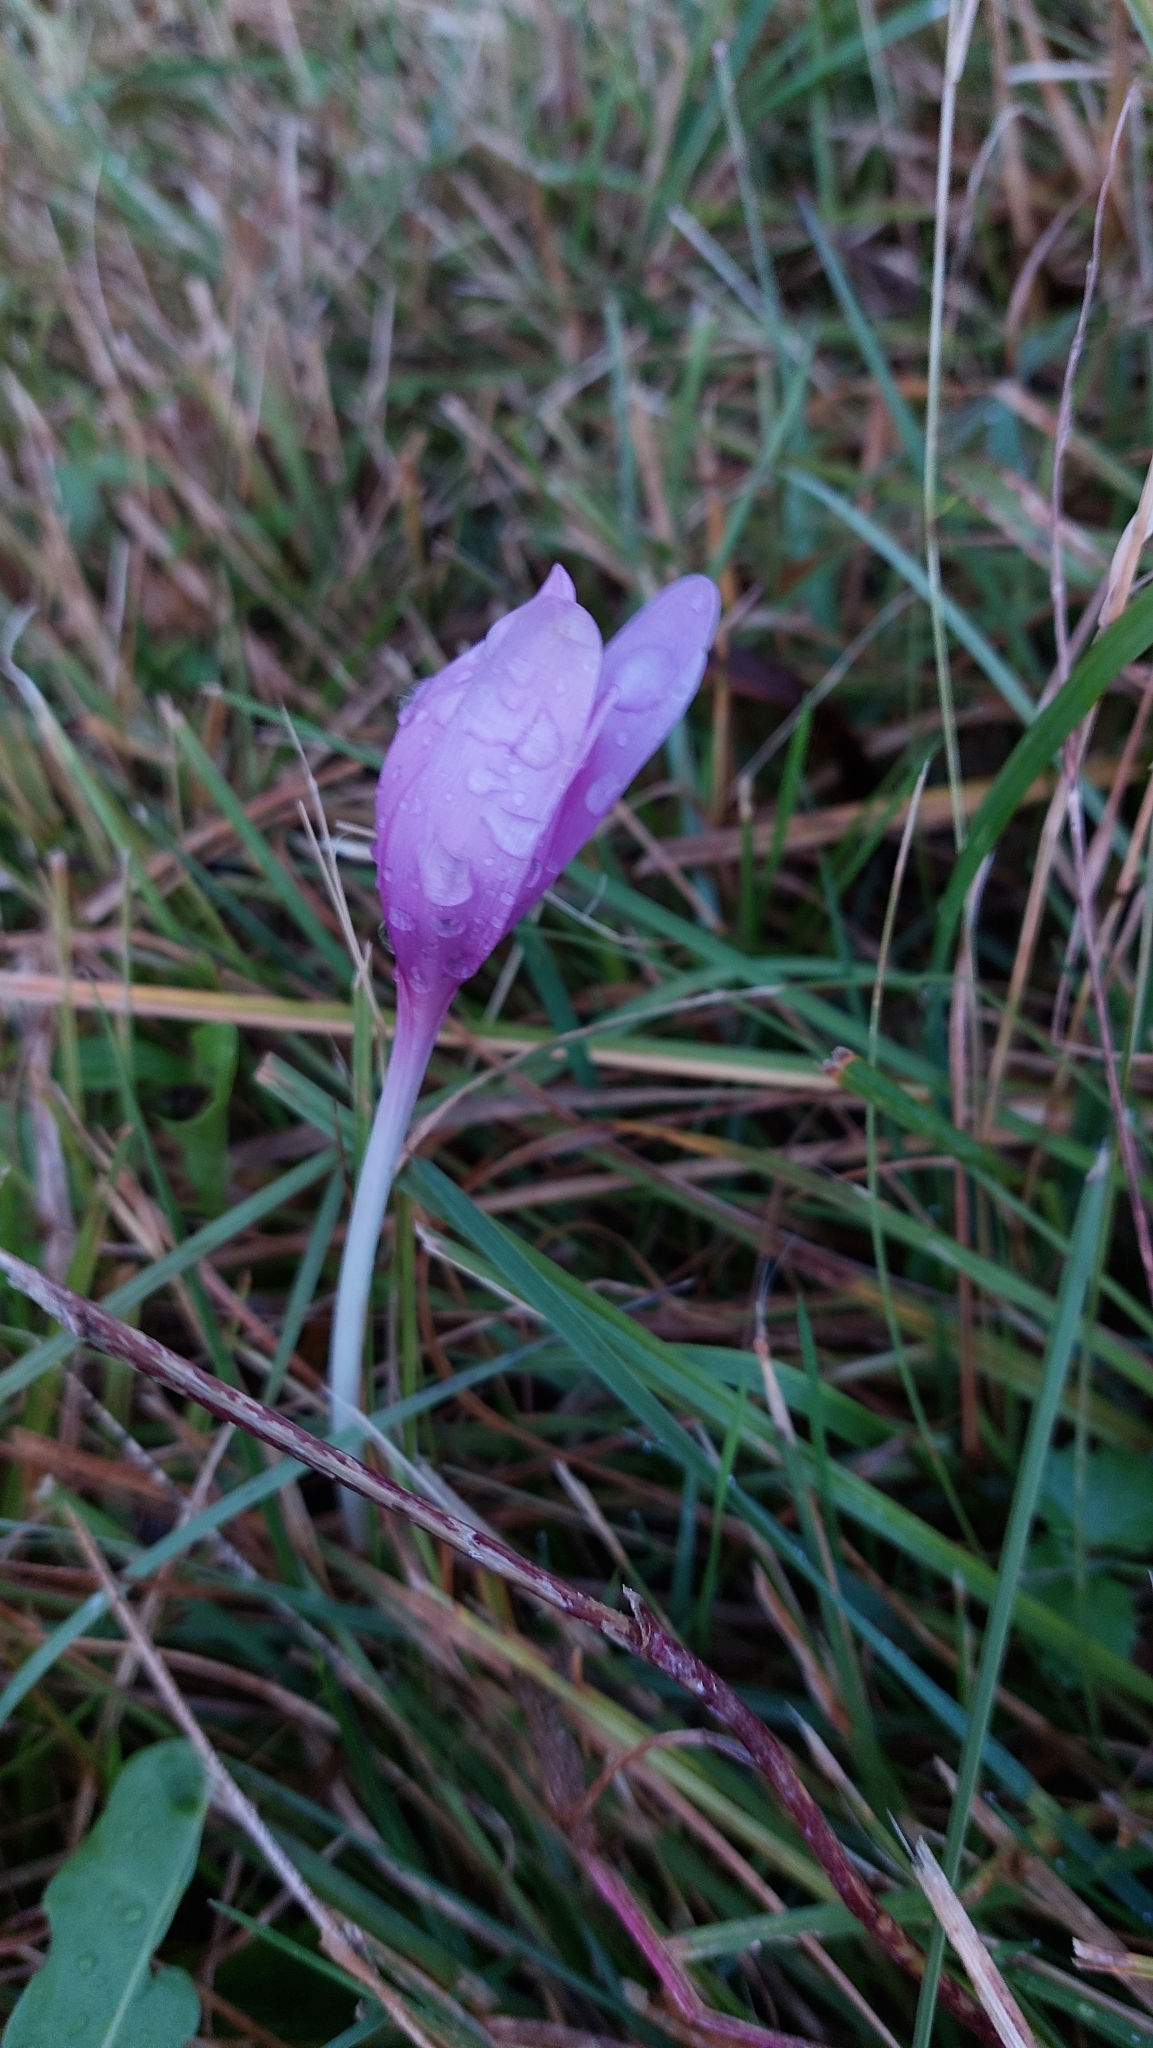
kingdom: Plantae
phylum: Tracheophyta
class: Liliopsida
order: Liliales
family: Colchicaceae
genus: Colchicum
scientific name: Colchicum autumnale
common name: Autumn crocus
